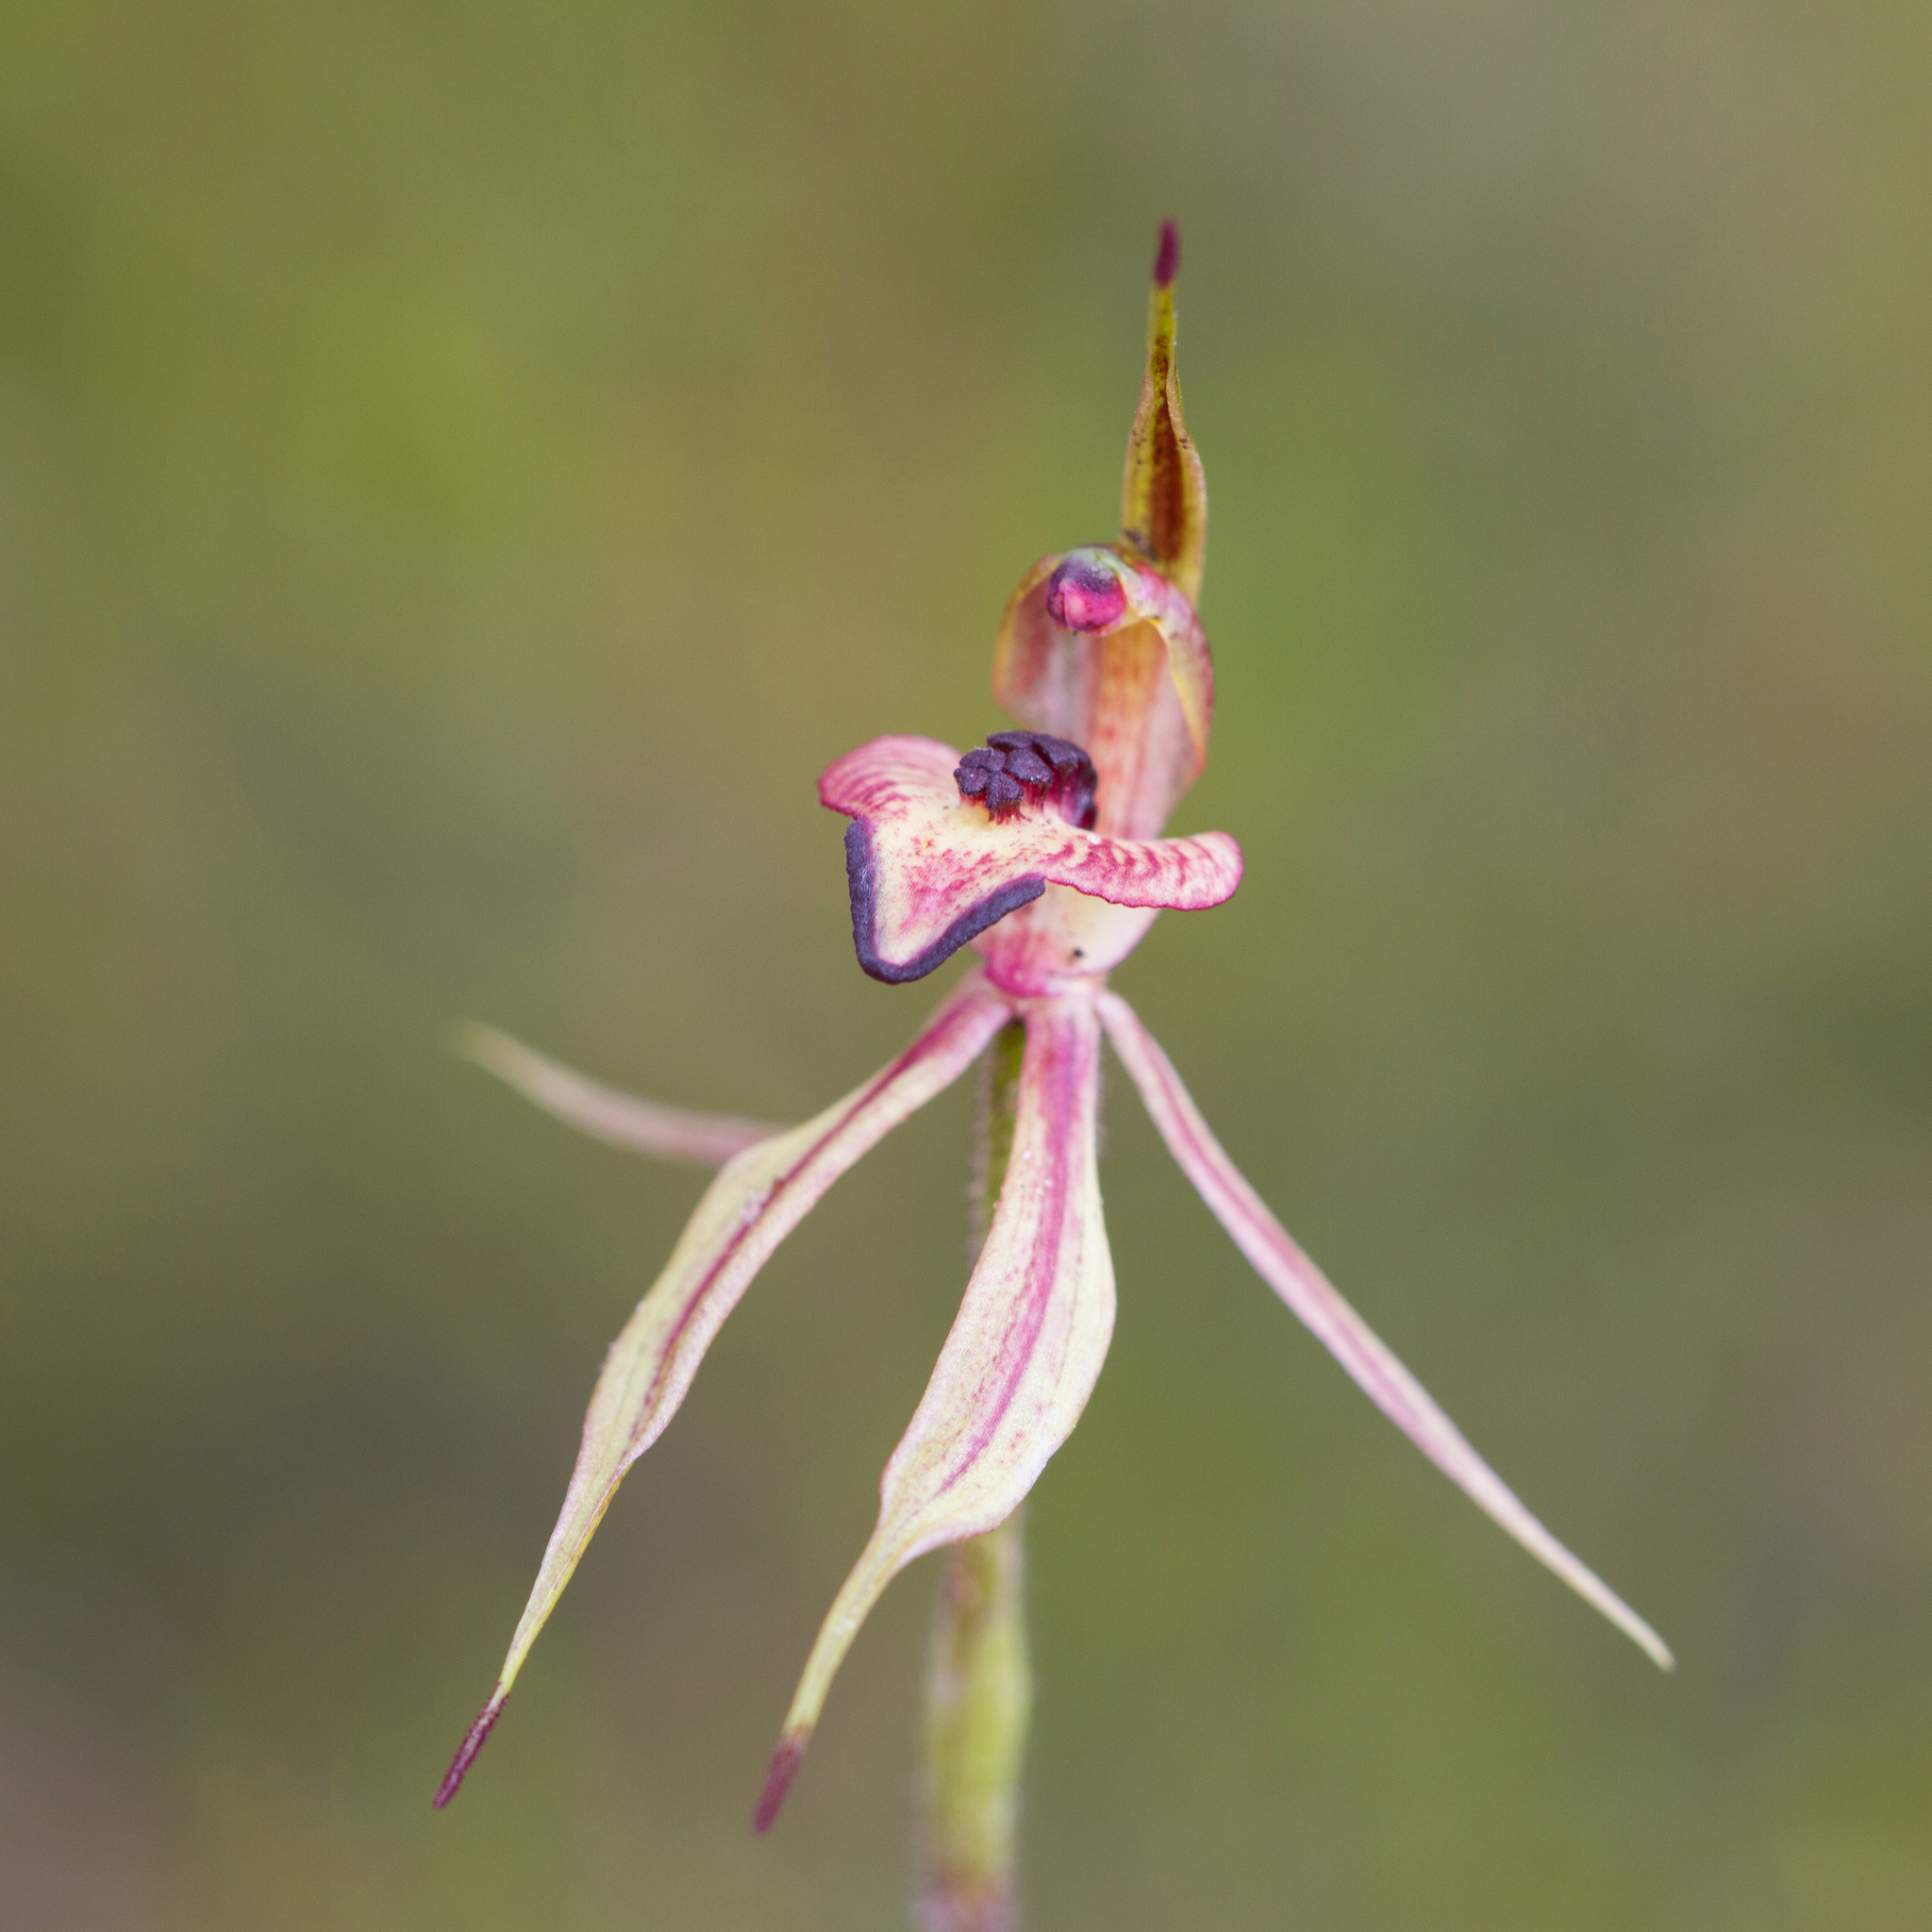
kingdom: Plantae
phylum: Tracheophyta
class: Liliopsida
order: Asparagales
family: Orchidaceae
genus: Caladenia
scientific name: Caladenia cardiochila
